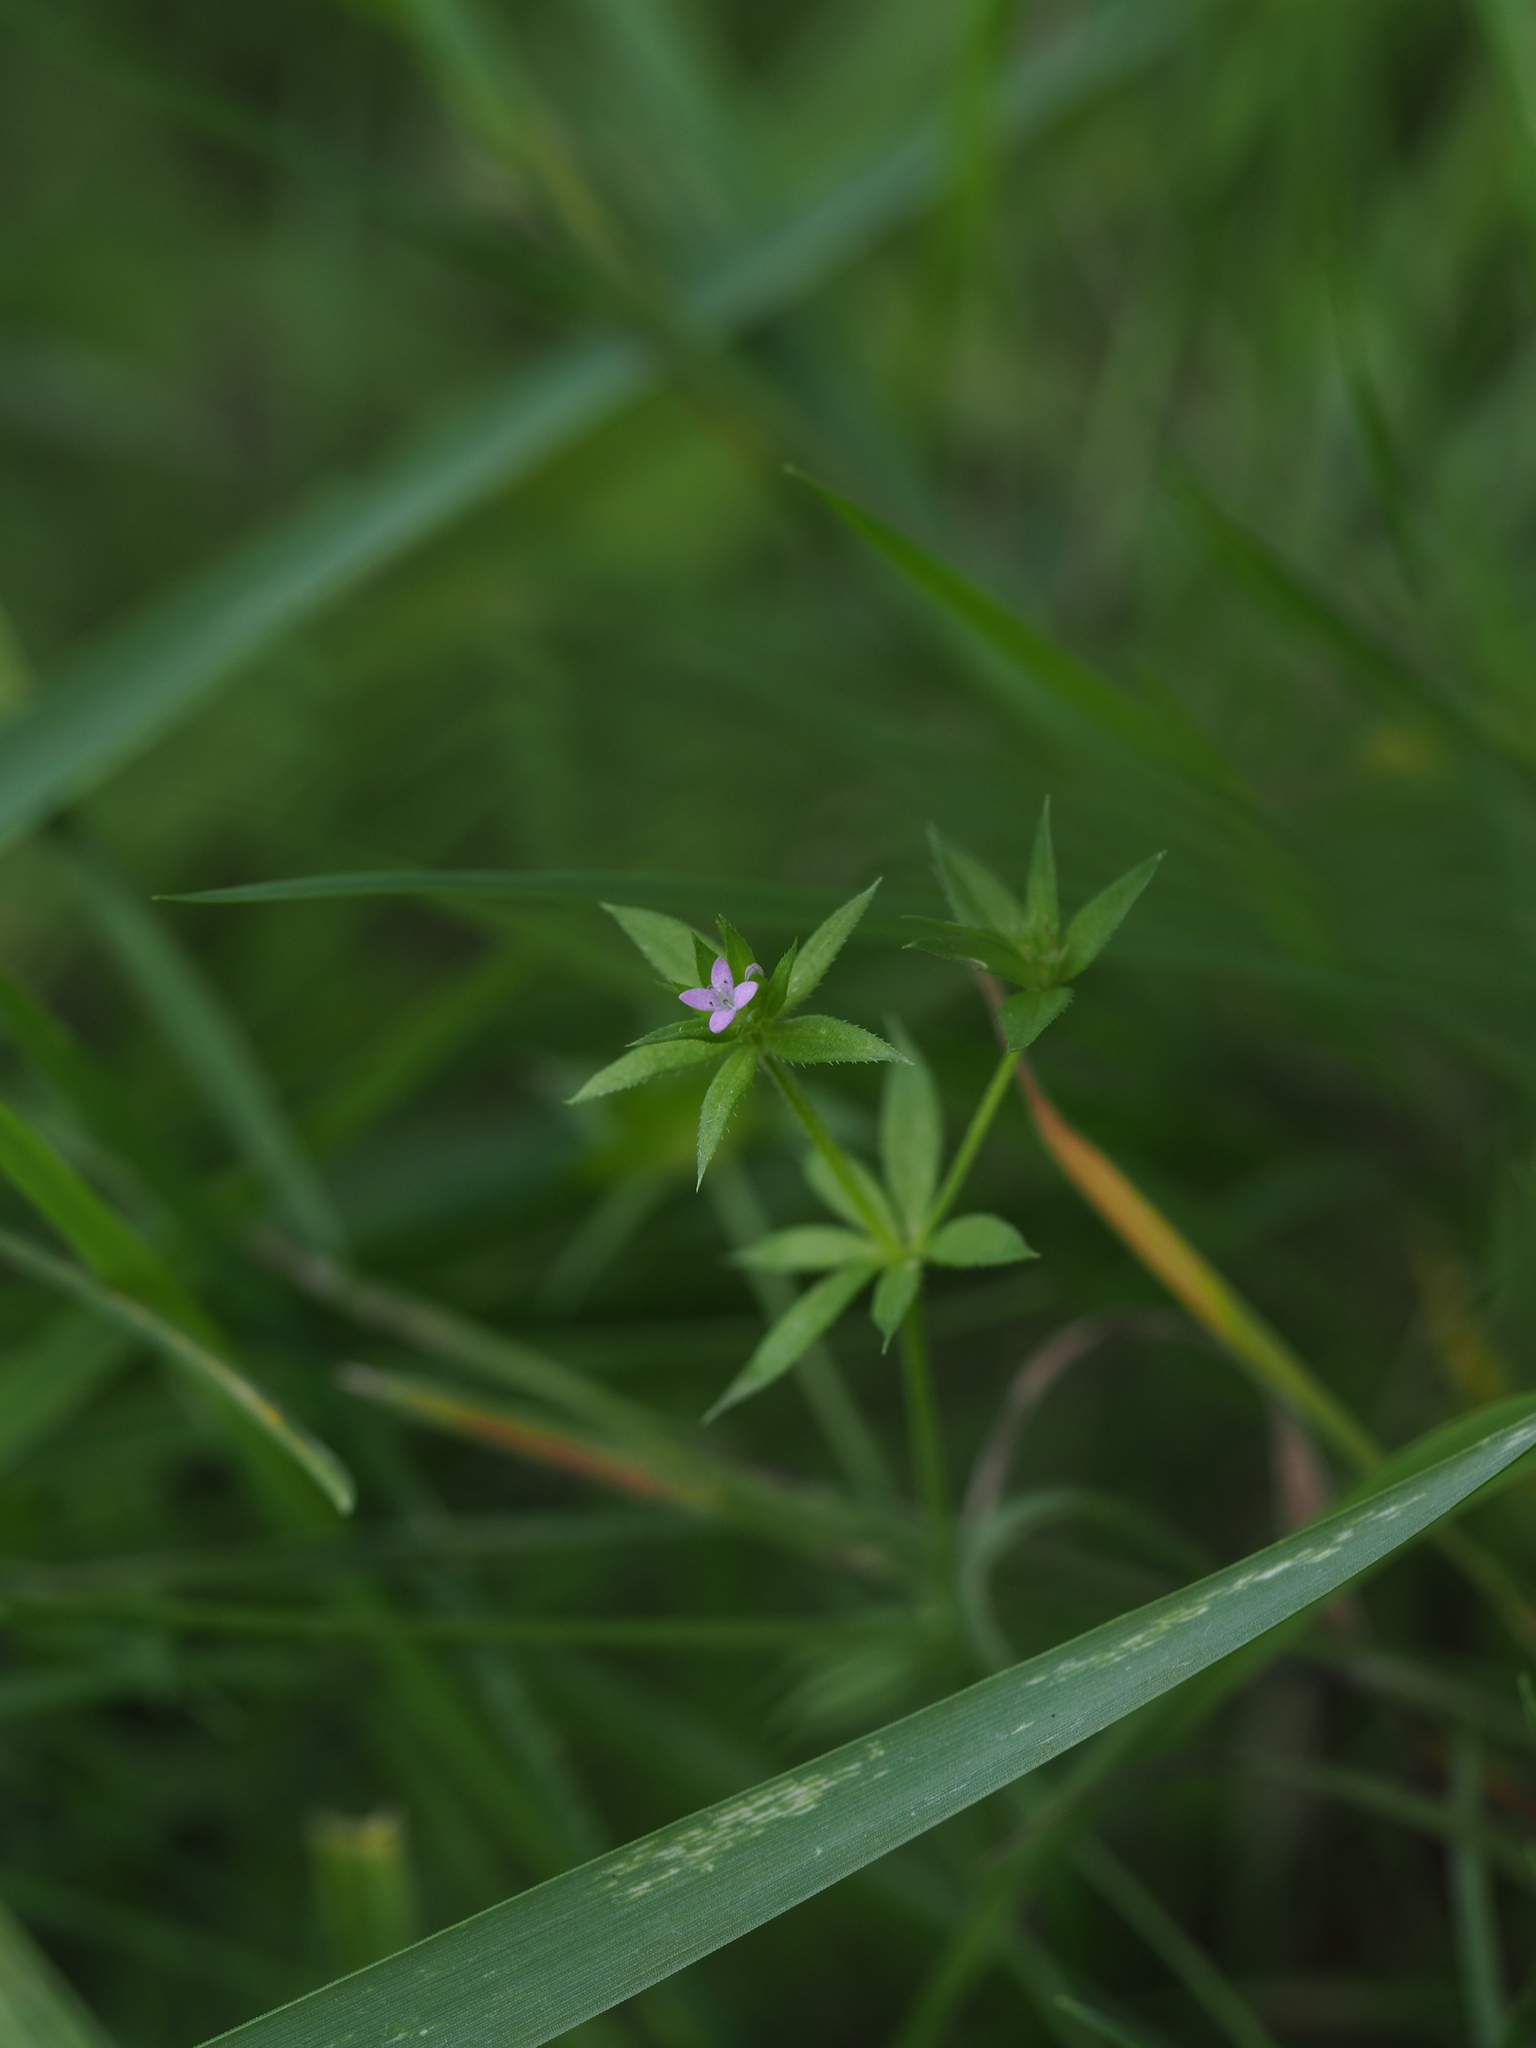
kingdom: Plantae
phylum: Tracheophyta
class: Magnoliopsida
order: Gentianales
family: Rubiaceae
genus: Sherardia
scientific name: Sherardia arvensis
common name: Field madder
